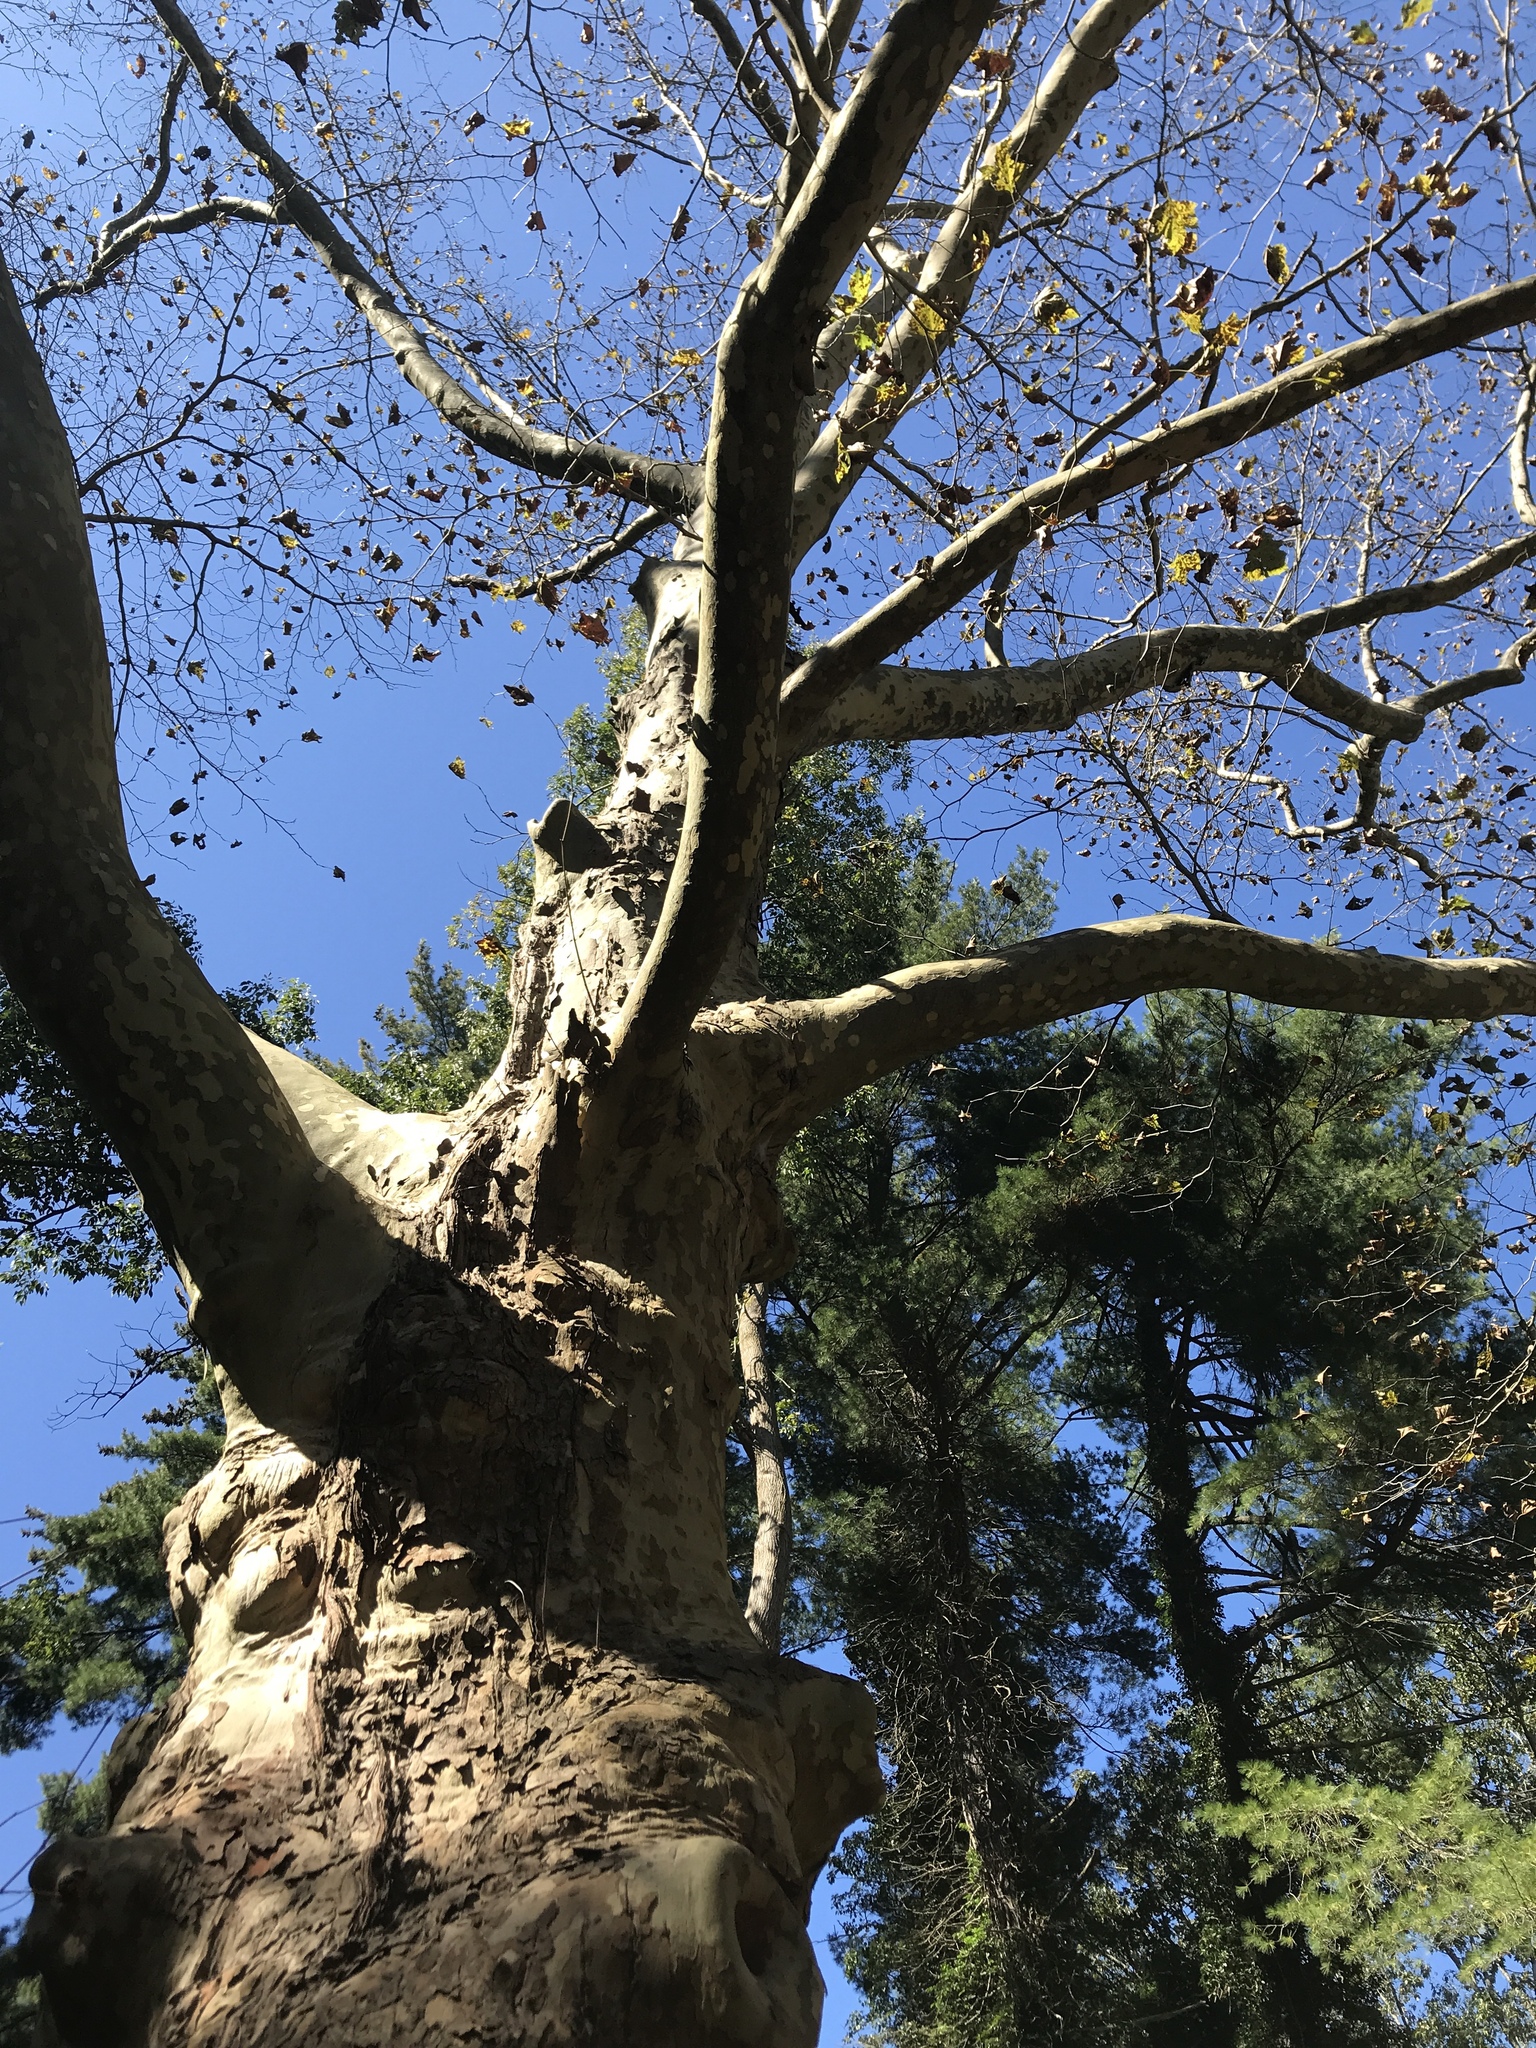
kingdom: Plantae
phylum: Tracheophyta
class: Magnoliopsida
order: Proteales
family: Platanaceae
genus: Platanus
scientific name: Platanus occidentalis
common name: American sycamore
